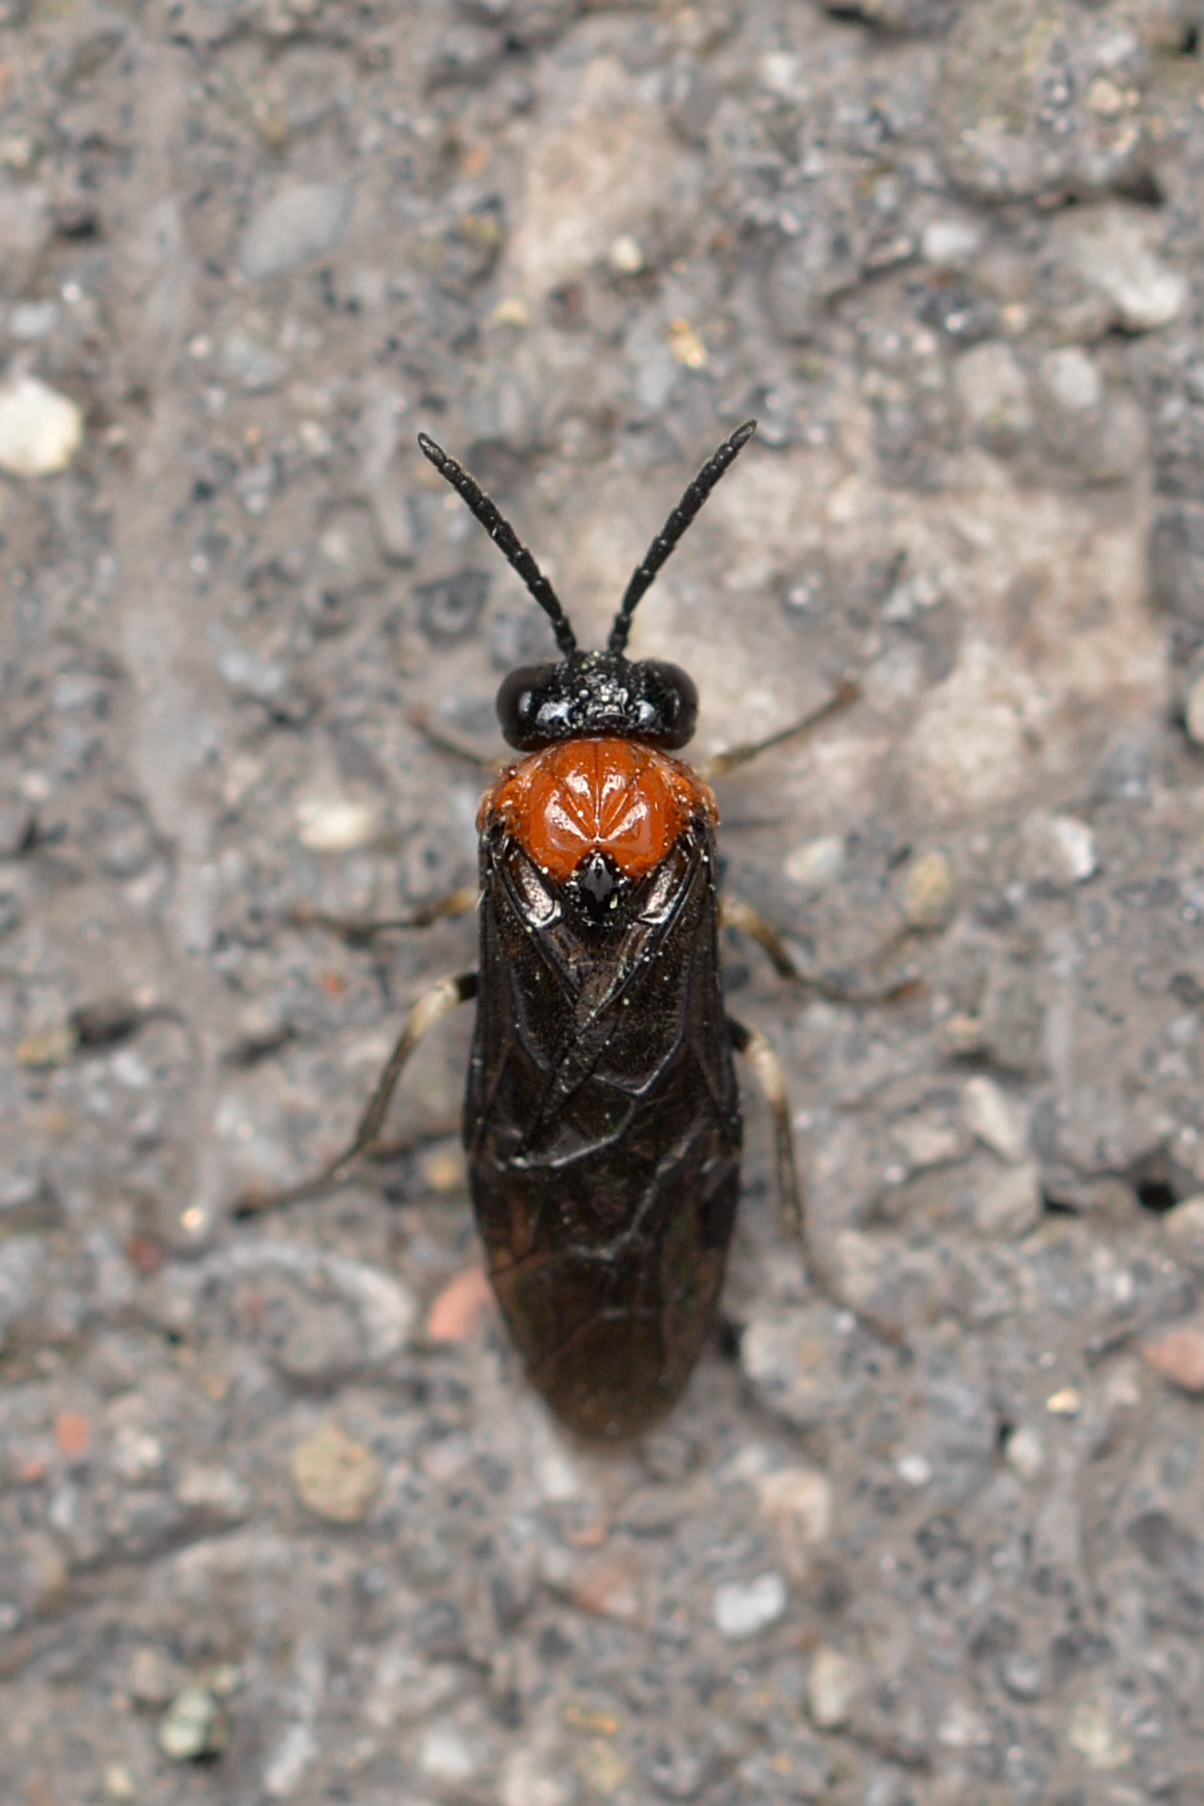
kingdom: Animalia
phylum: Arthropoda
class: Insecta
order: Hymenoptera
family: Tenthredinidae
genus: Eutomostethus
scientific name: Eutomostethus ephippium
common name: Tenthredid wasp
